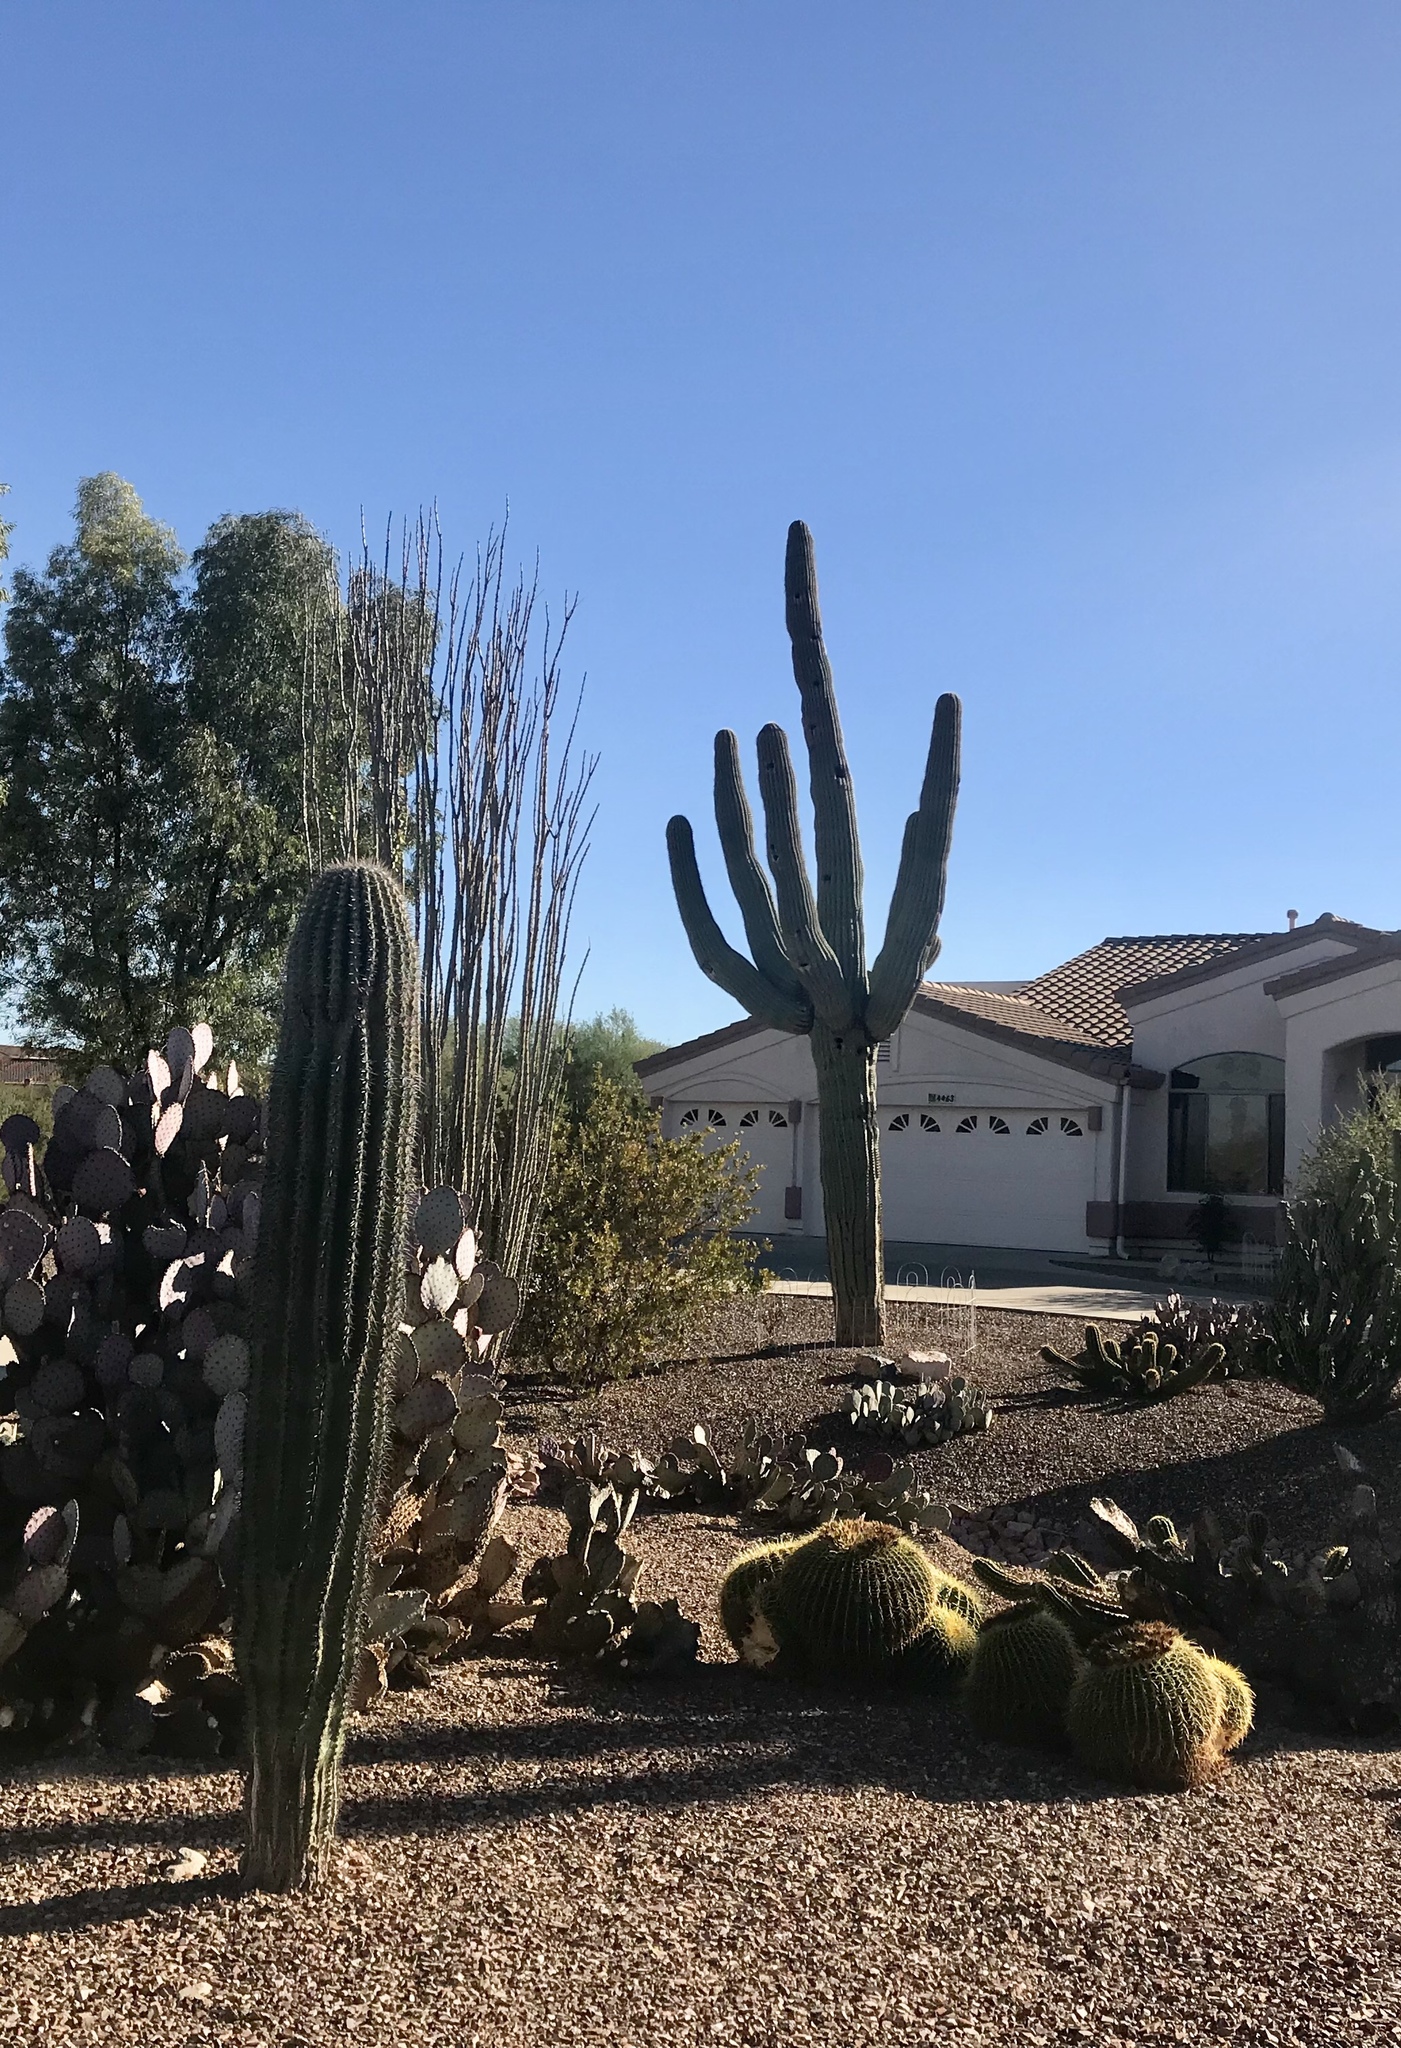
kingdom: Plantae
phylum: Tracheophyta
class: Magnoliopsida
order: Caryophyllales
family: Cactaceae
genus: Carnegiea
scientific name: Carnegiea gigantea
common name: Saguaro
